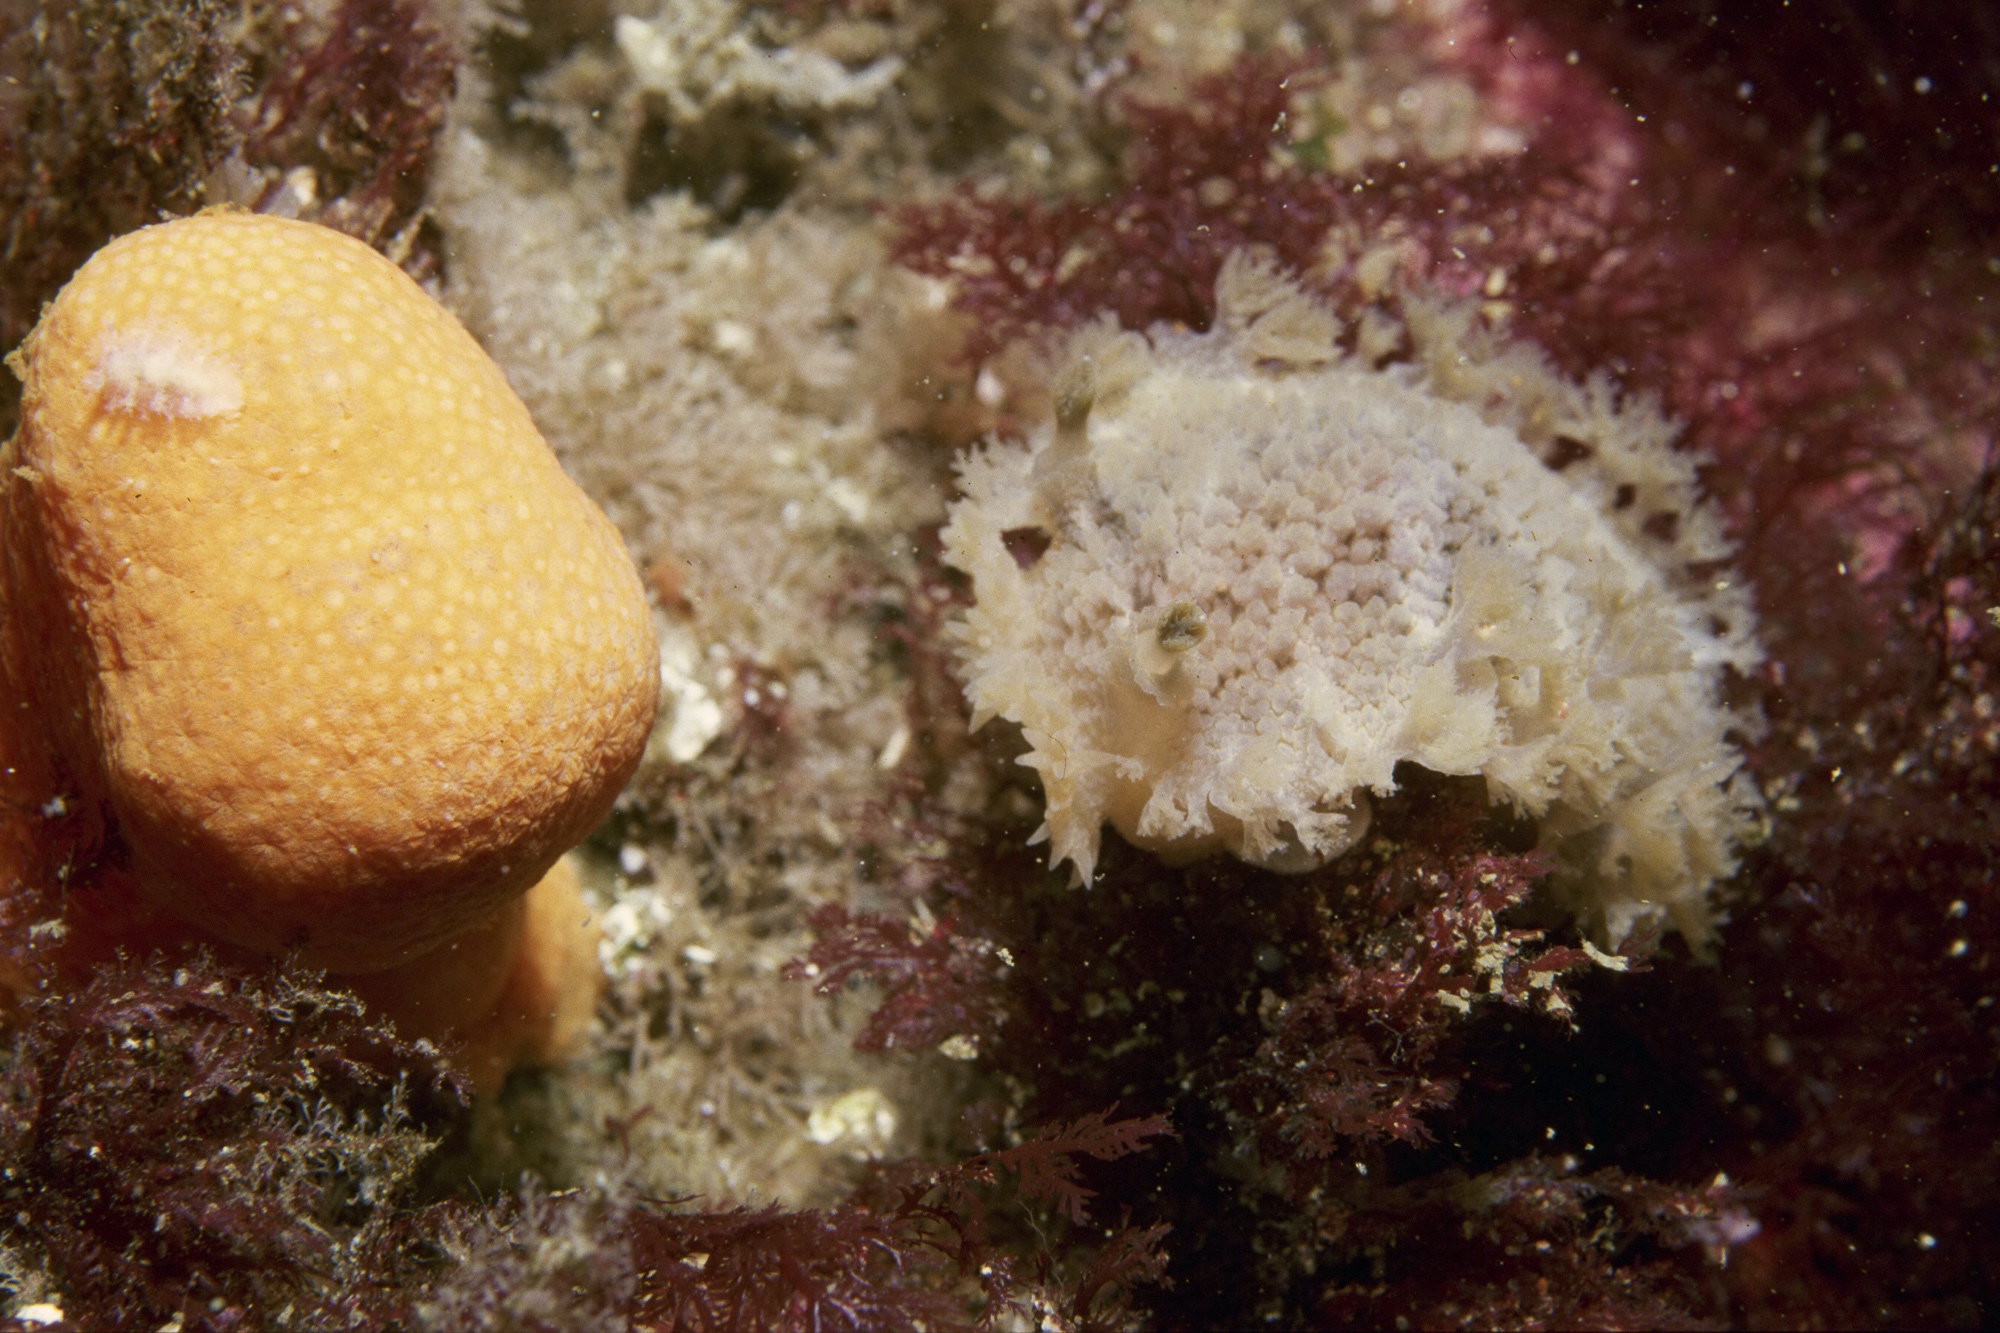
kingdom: Animalia
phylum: Mollusca
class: Gastropoda
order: Nudibranchia
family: Tritoniidae
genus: Tritonia
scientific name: Tritonia hombergii
